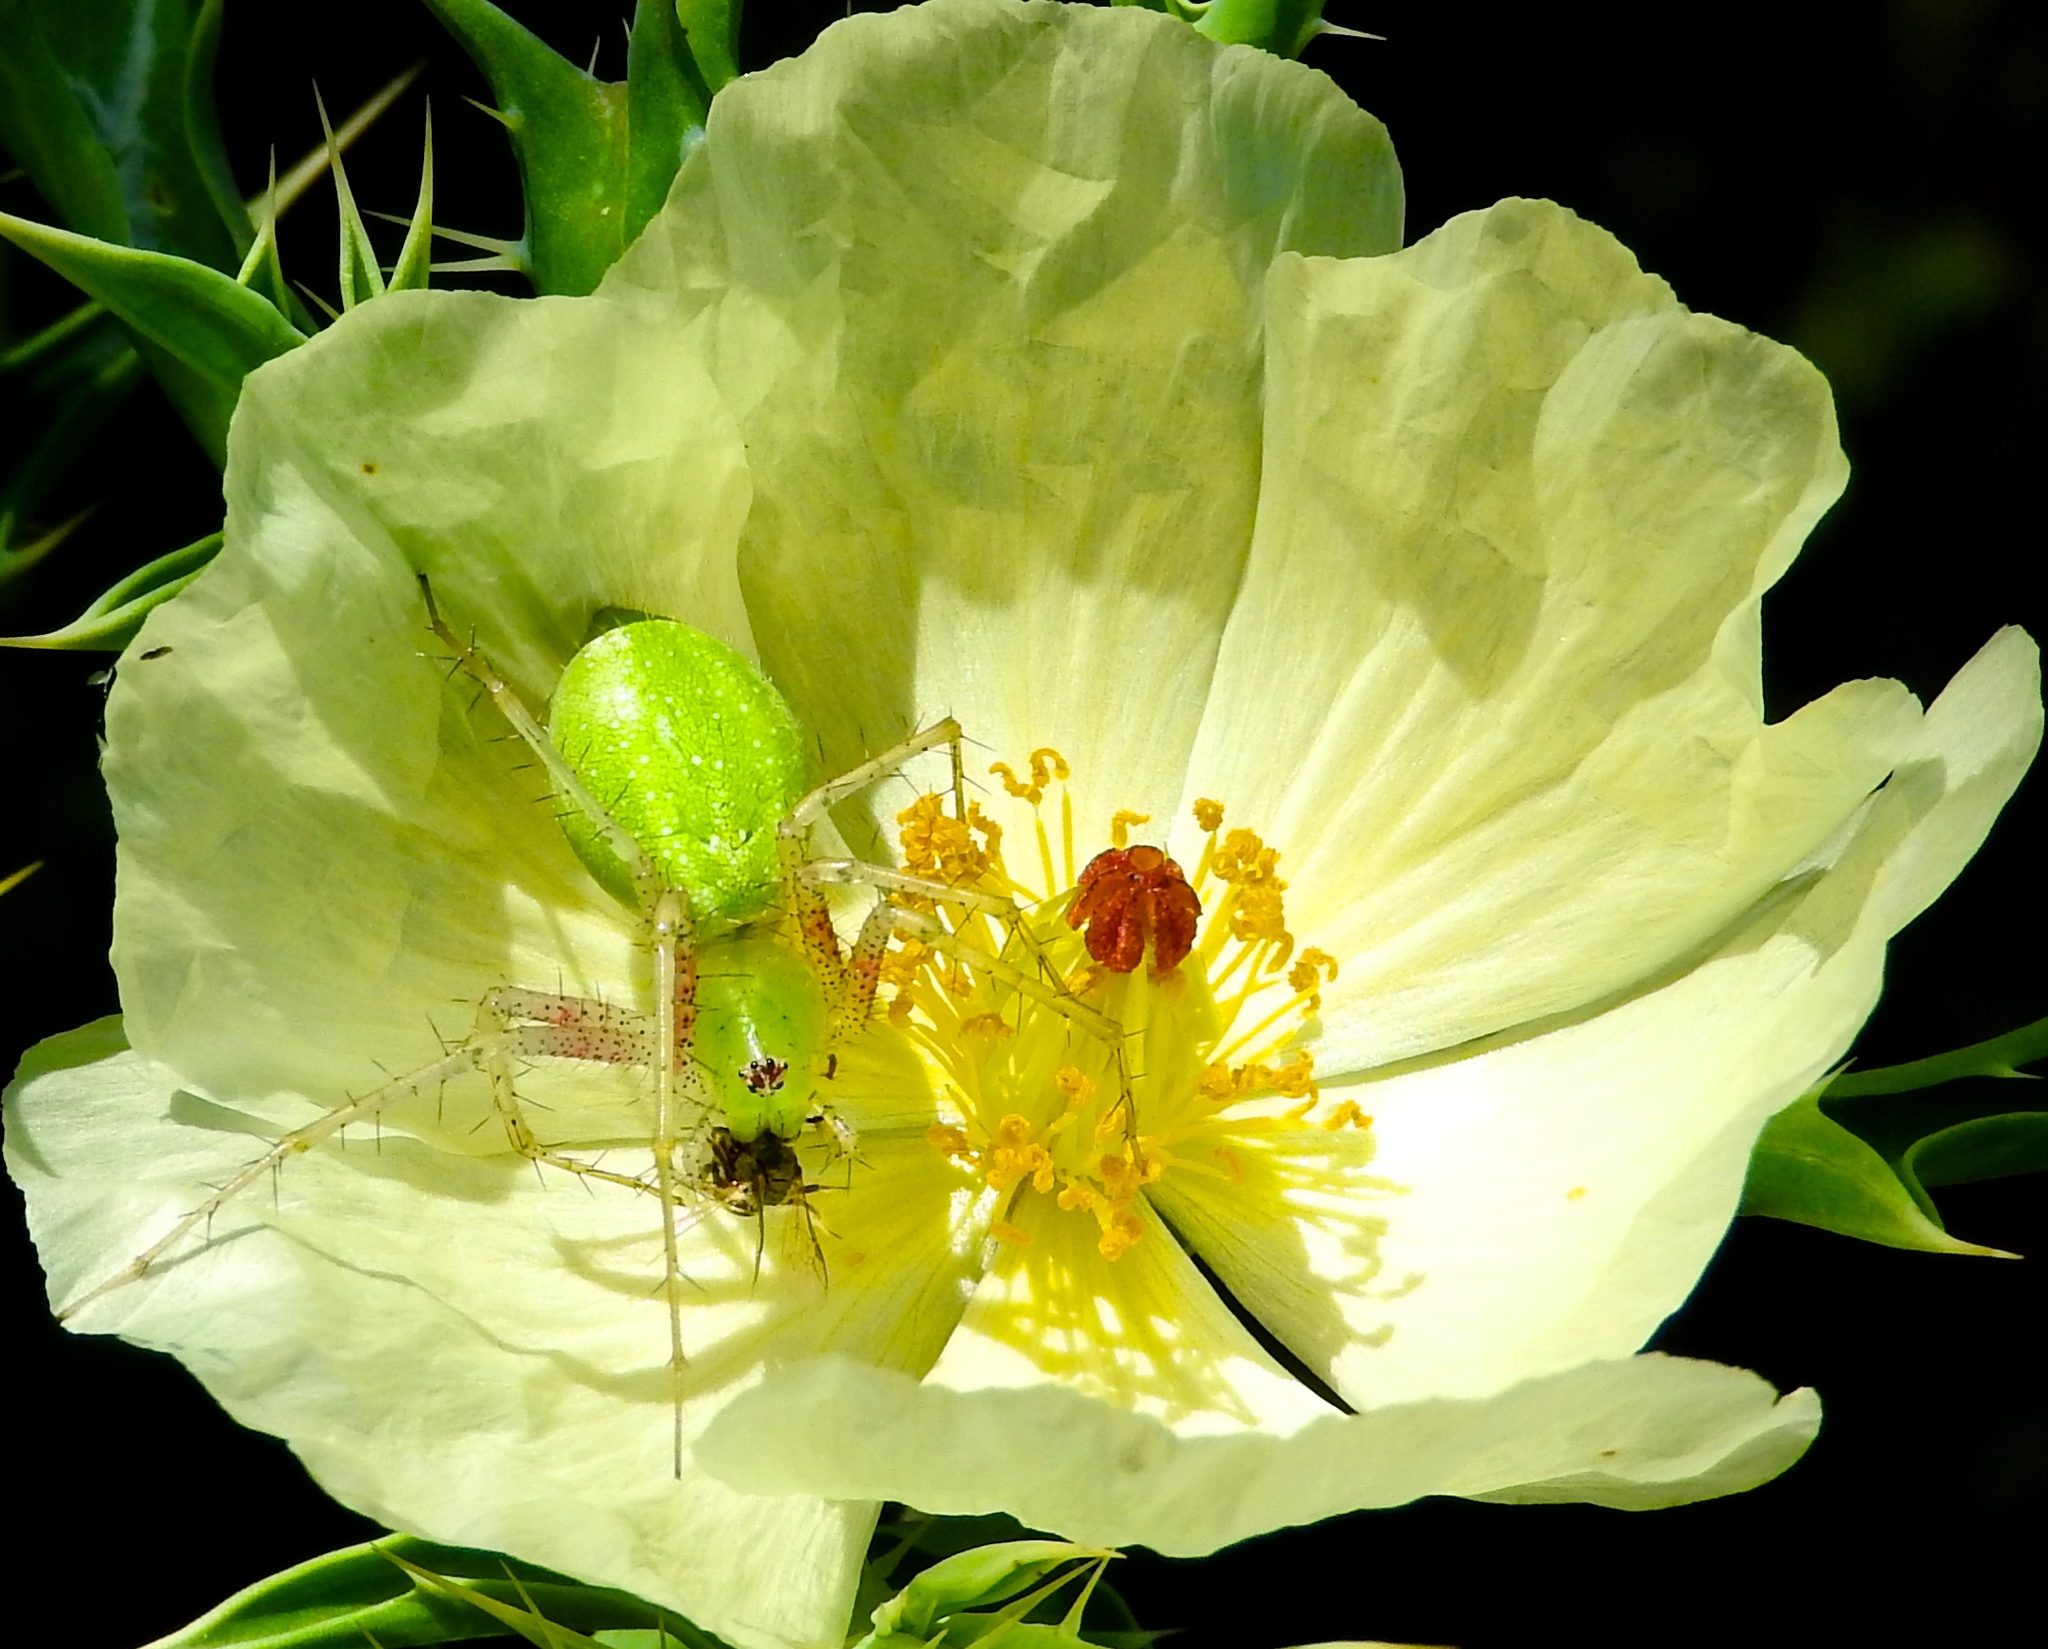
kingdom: Animalia
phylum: Arthropoda
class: Arachnida
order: Araneae
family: Oxyopidae
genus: Peucetia
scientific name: Peucetia longipalpis
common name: Lynx spiders
